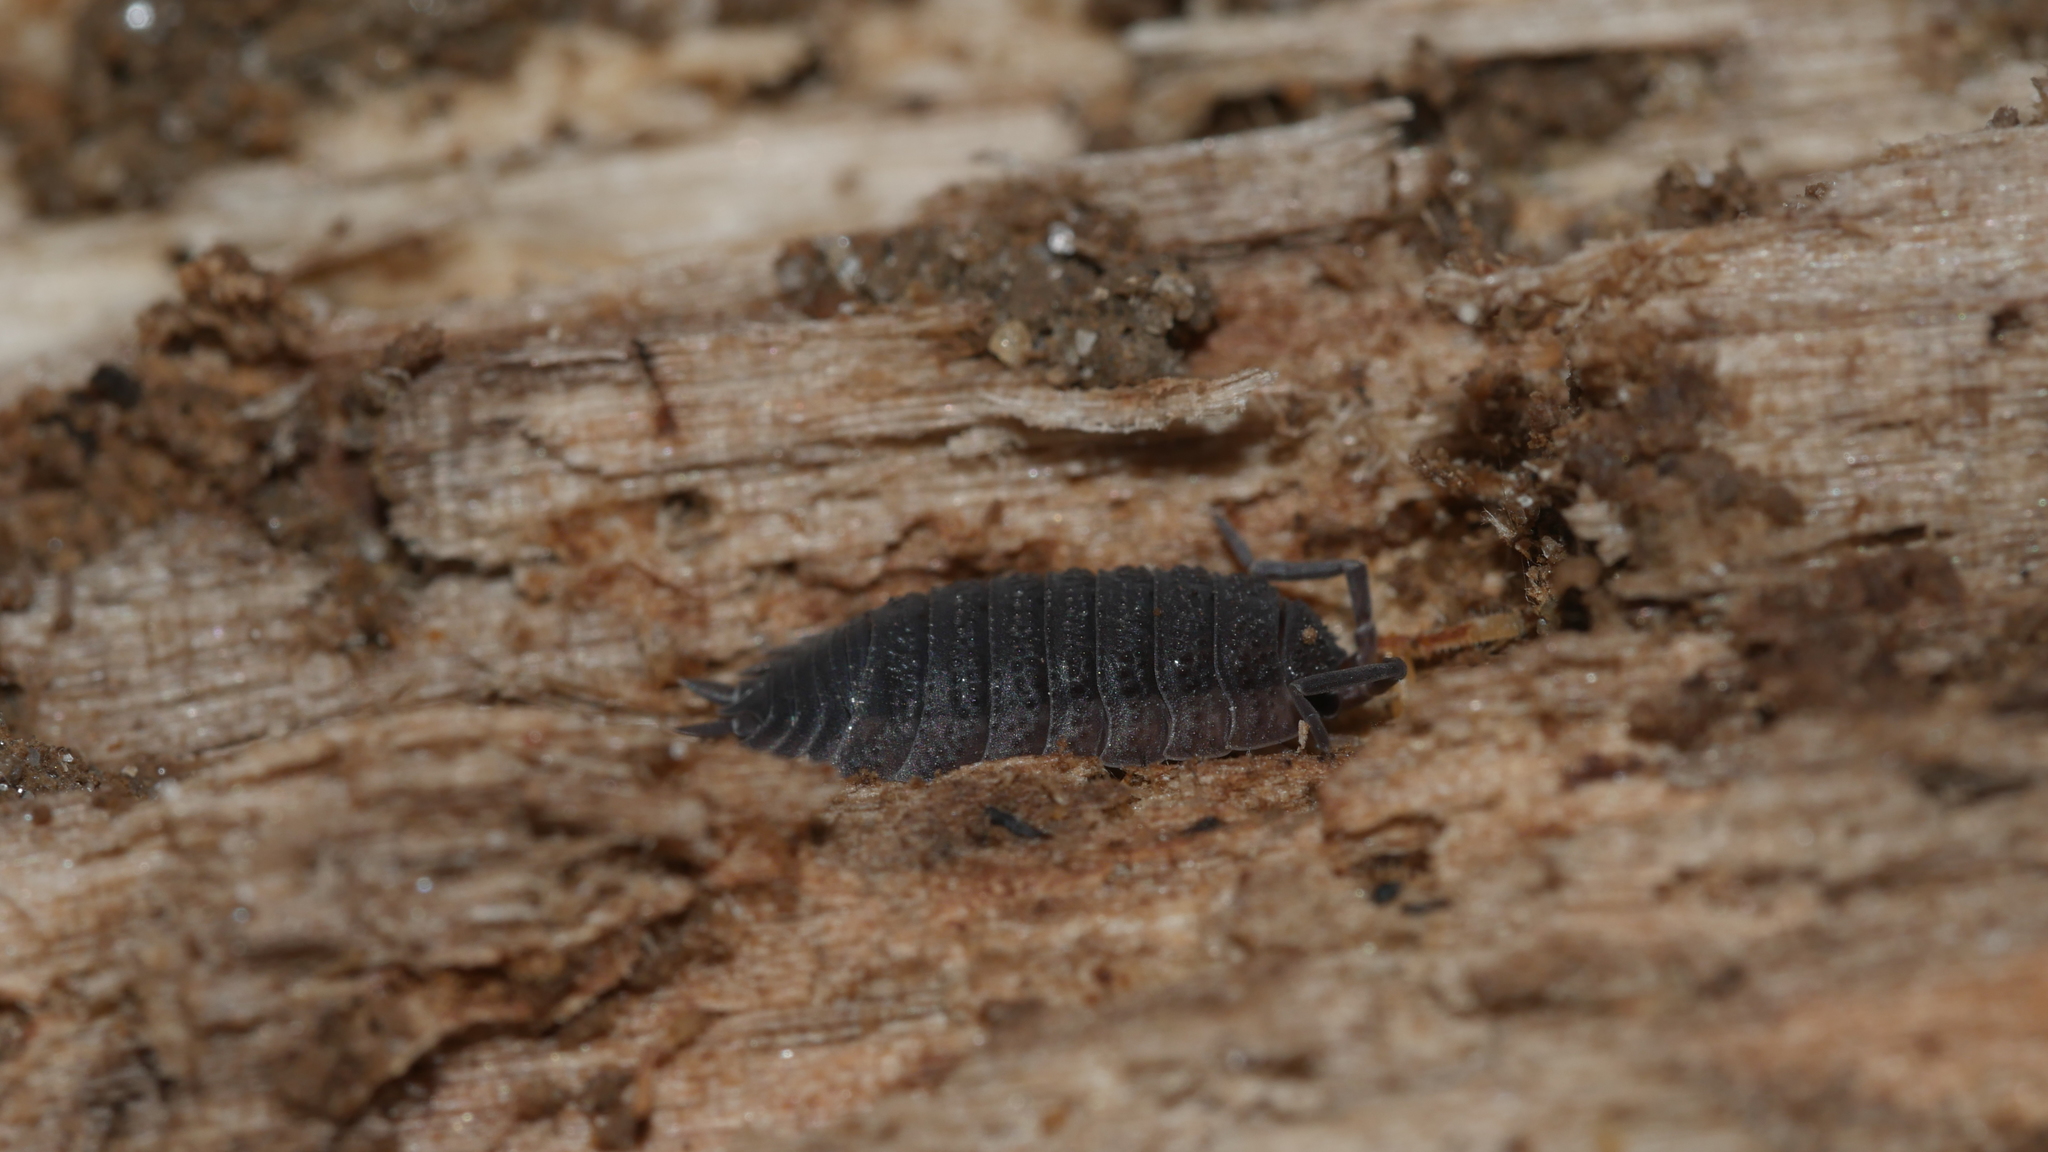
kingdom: Animalia
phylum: Arthropoda
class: Malacostraca
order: Isopoda
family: Porcellionidae
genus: Porcellio
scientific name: Porcellio scaber
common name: Common rough woodlouse
